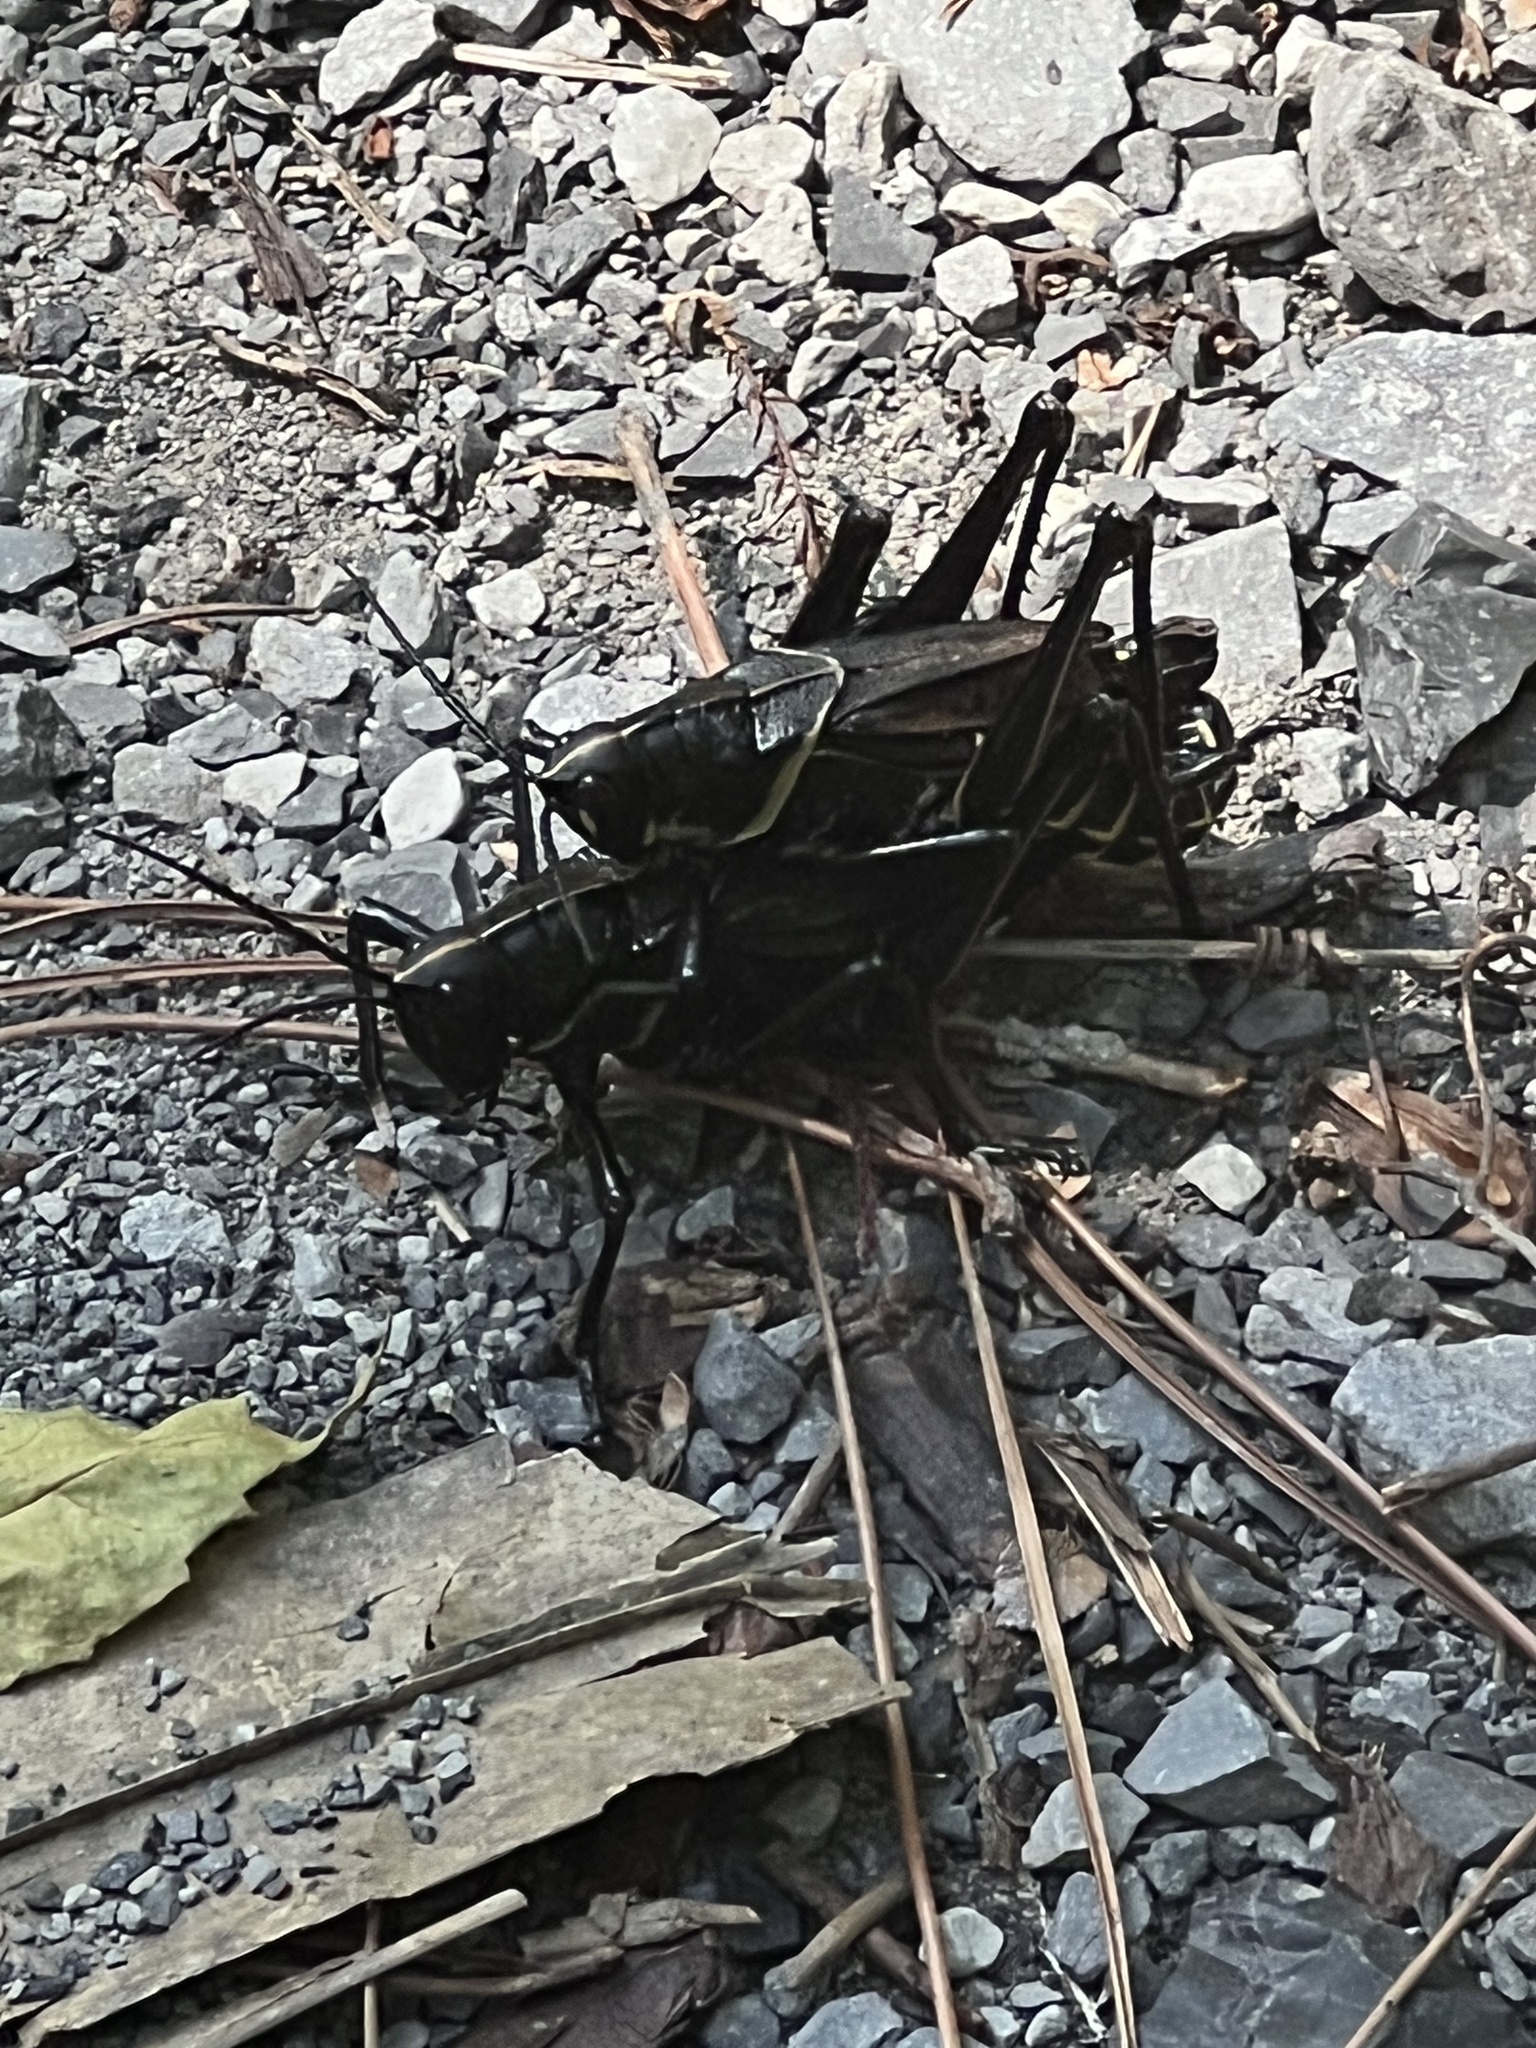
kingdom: Animalia
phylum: Arthropoda
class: Insecta
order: Orthoptera
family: Romaleidae
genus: Romalea
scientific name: Romalea microptera
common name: Eastern lubber grasshopper
